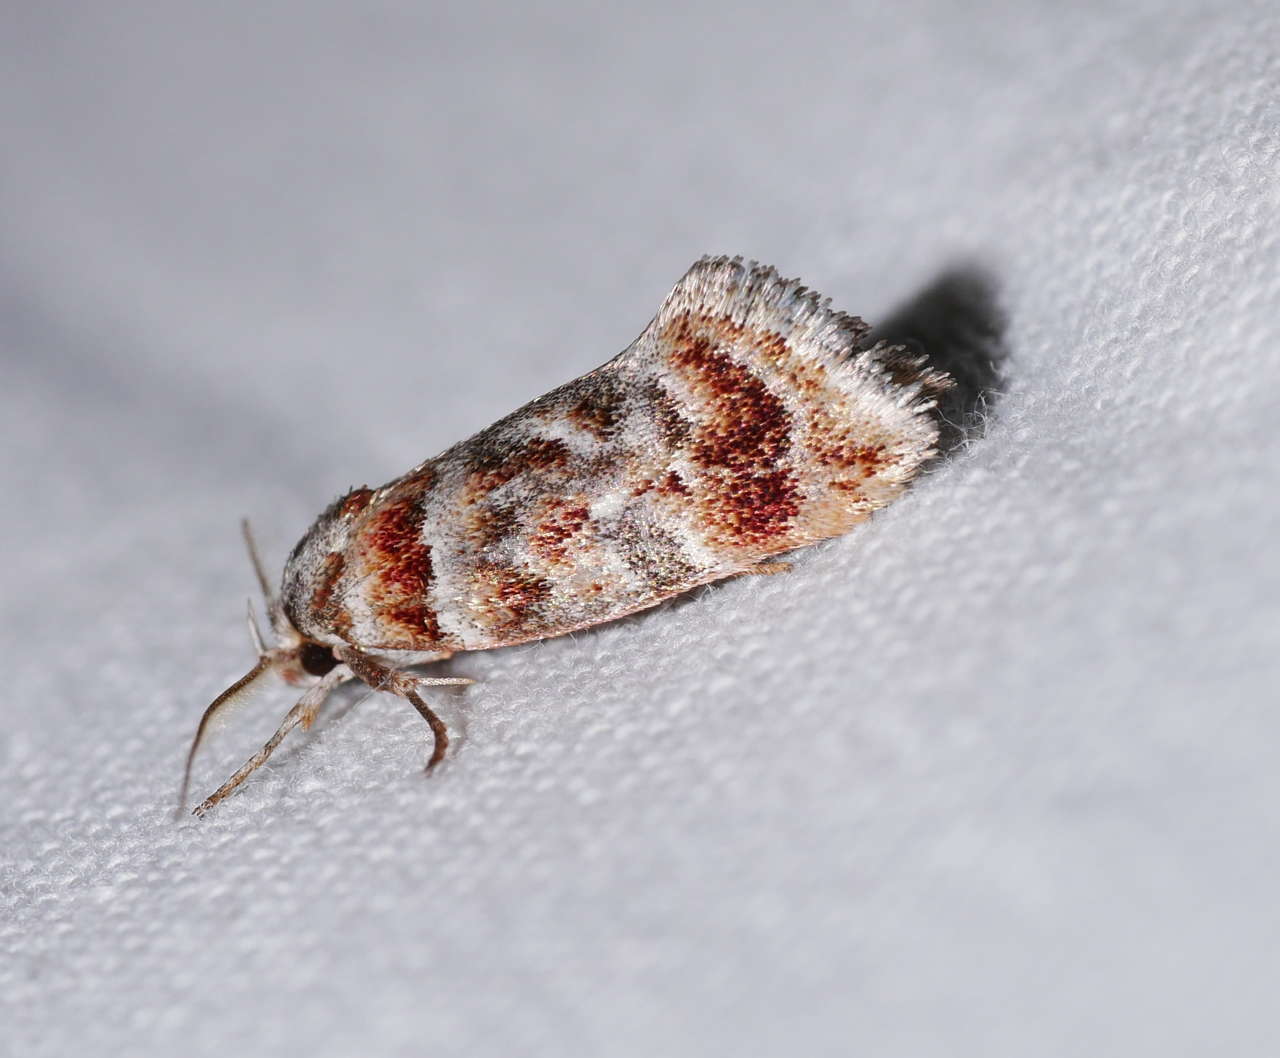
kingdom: Animalia
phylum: Arthropoda
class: Insecta
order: Lepidoptera
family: Oecophoridae
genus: Acmotoma
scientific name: Acmotoma magniferella
